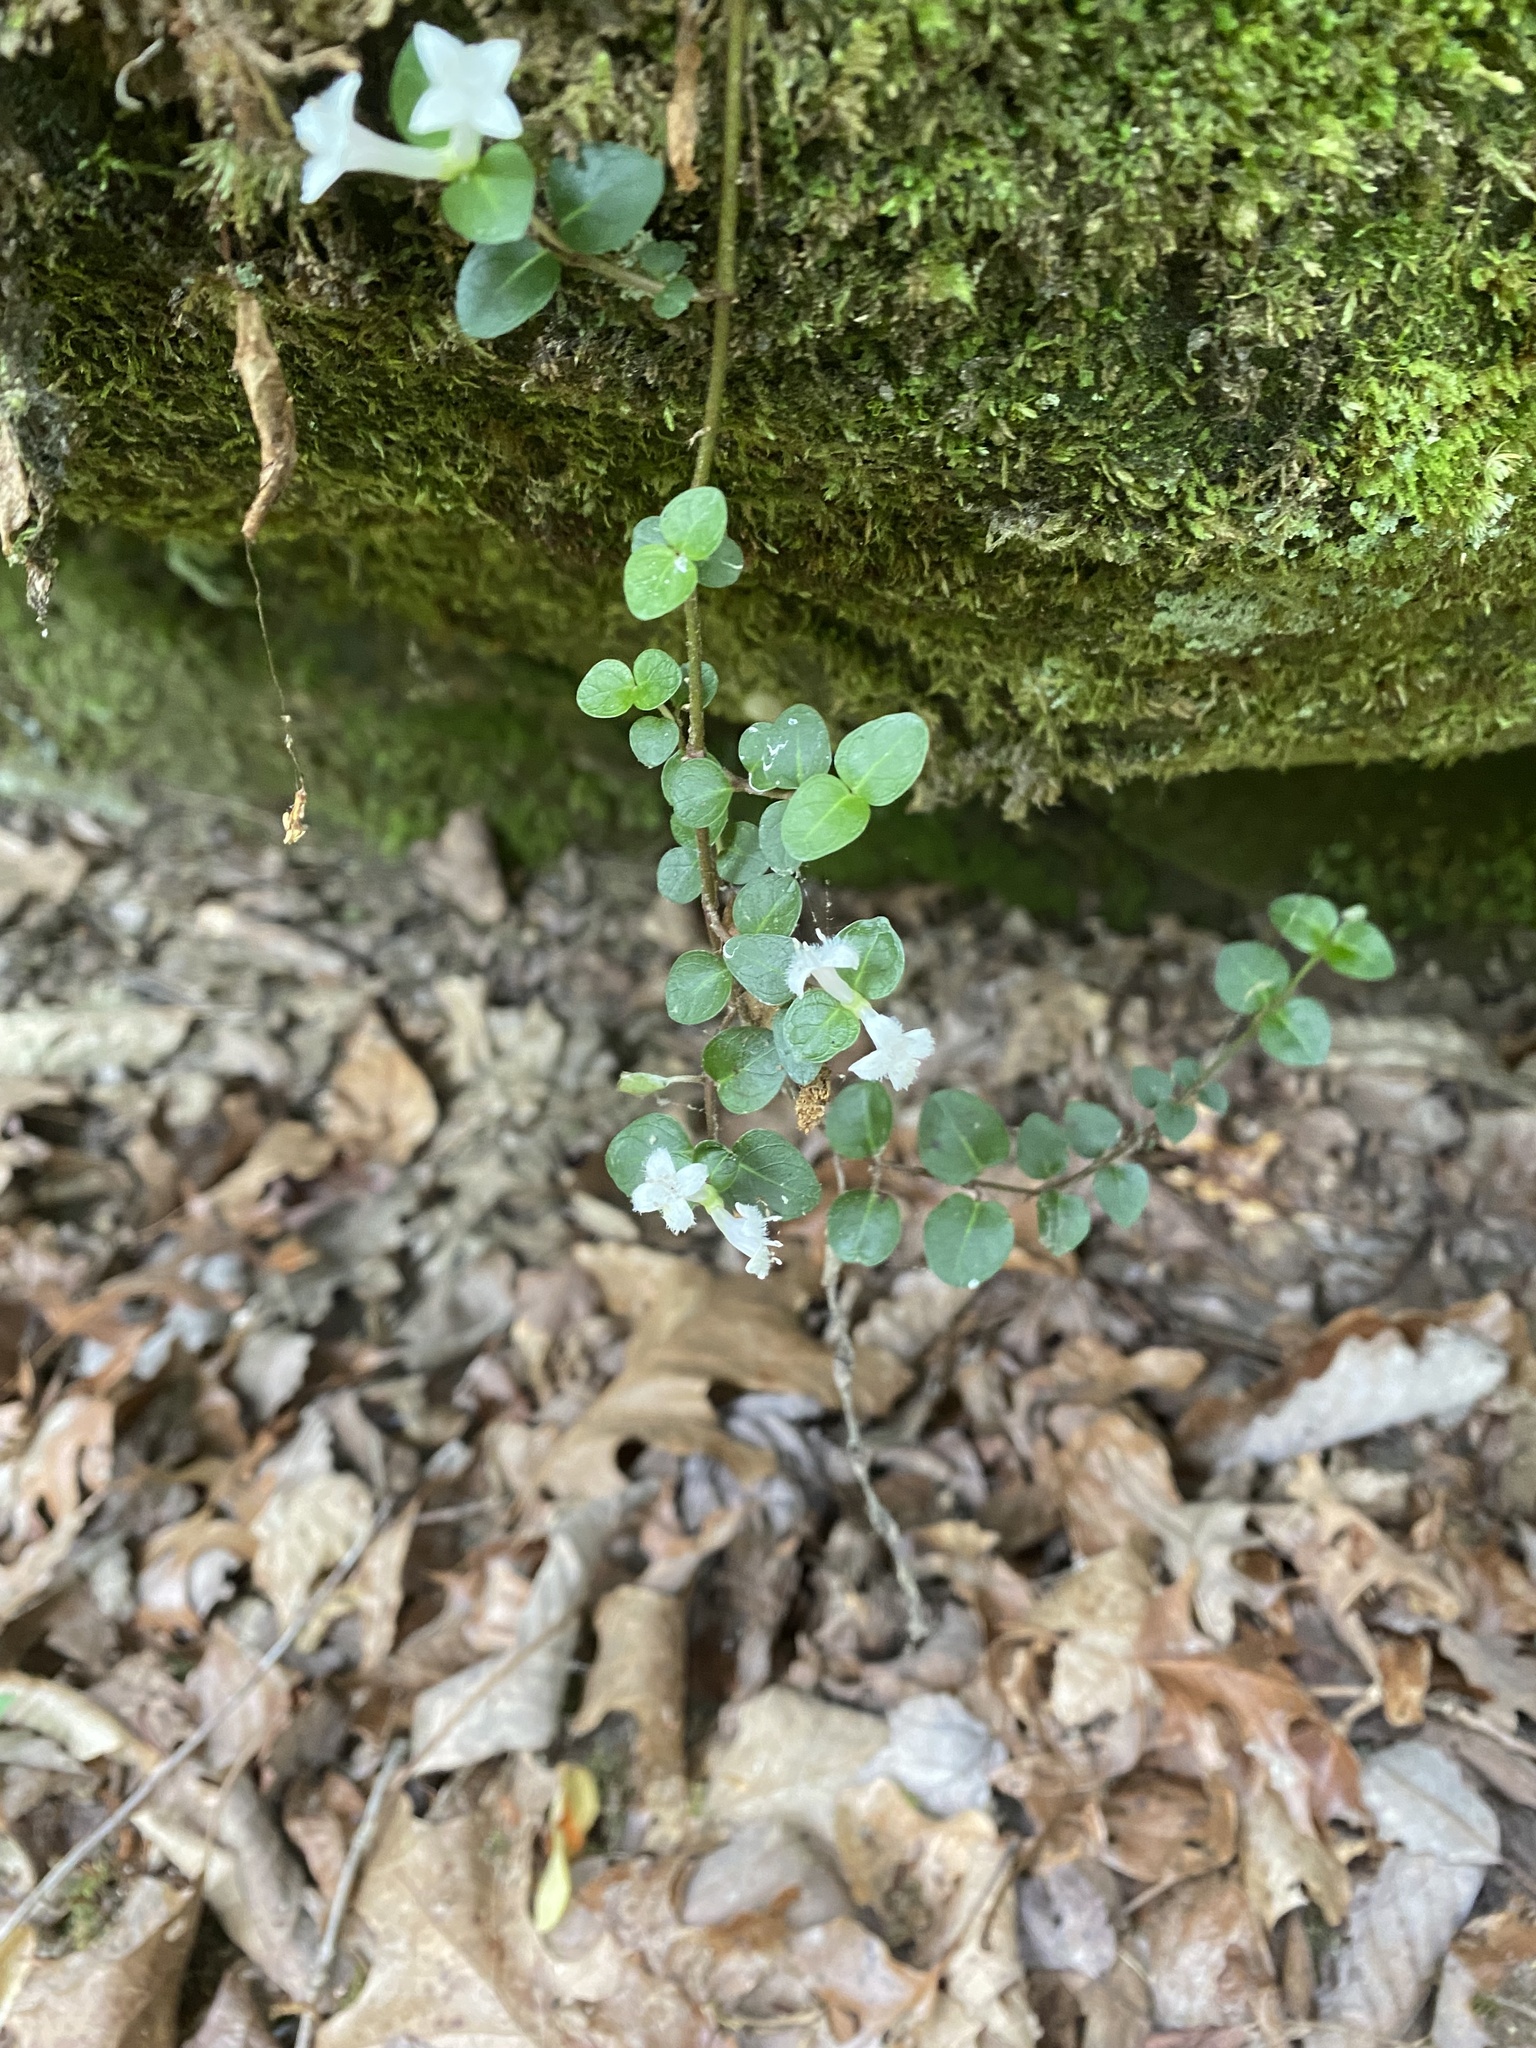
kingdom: Plantae
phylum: Tracheophyta
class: Magnoliopsida
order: Gentianales
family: Rubiaceae
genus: Mitchella
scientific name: Mitchella repens
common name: Partridge-berry
